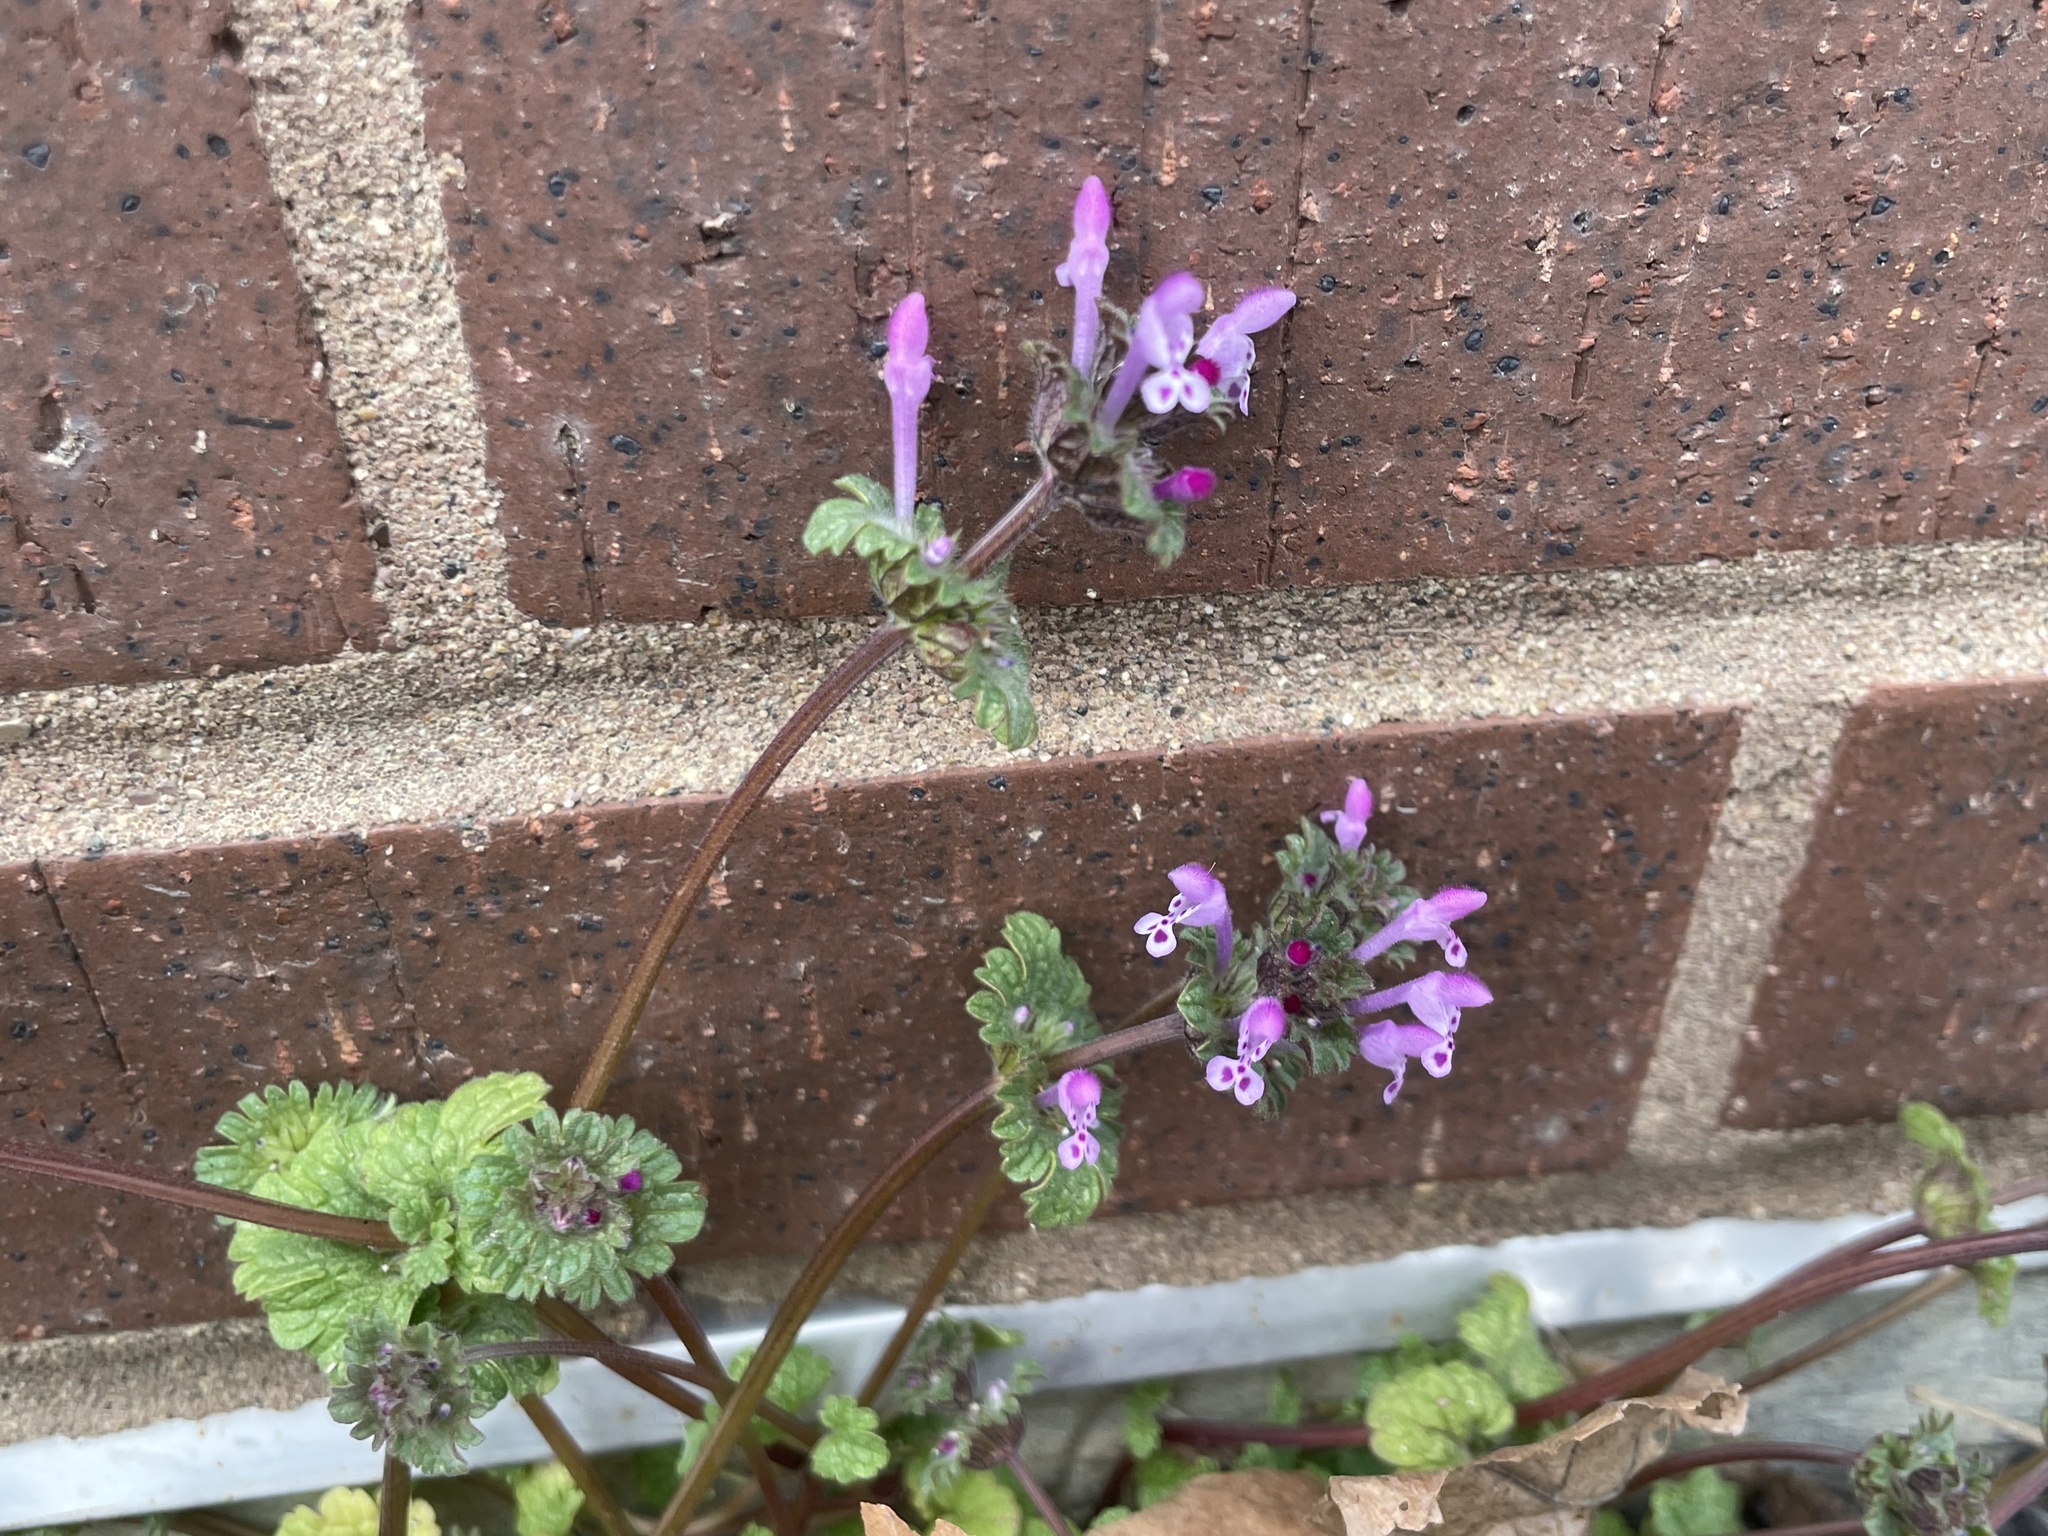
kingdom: Plantae
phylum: Tracheophyta
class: Magnoliopsida
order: Lamiales
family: Lamiaceae
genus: Lamium
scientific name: Lamium amplexicaule
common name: Henbit dead-nettle
